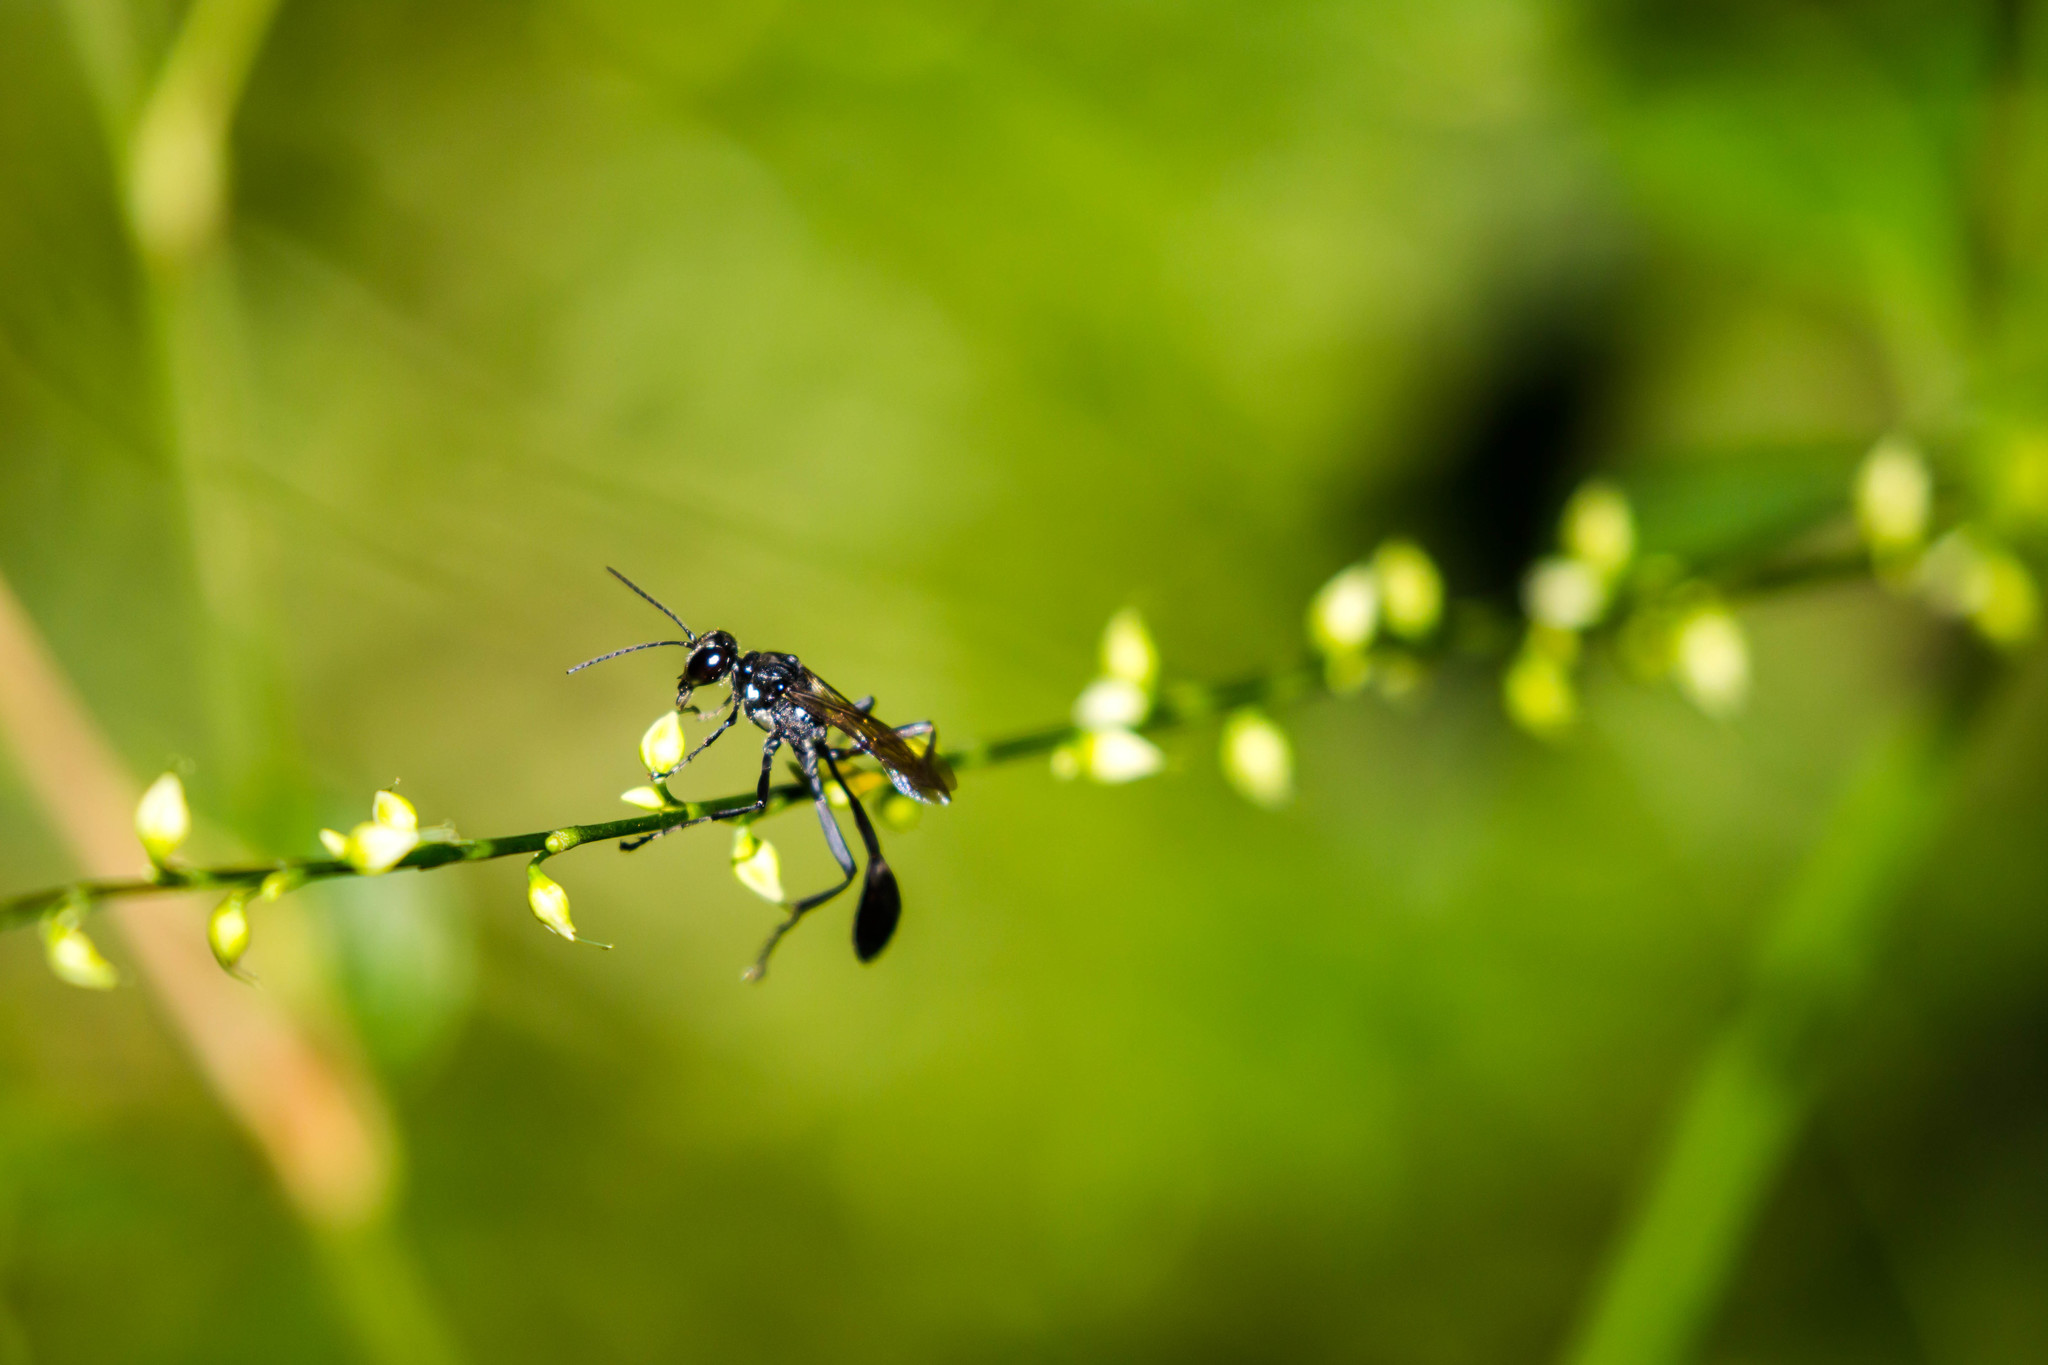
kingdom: Animalia
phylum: Arthropoda
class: Insecta
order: Hymenoptera
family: Sphecidae
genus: Eremnophila
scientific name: Eremnophila aureonotata
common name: Gold-marked thread-waisted wasp
